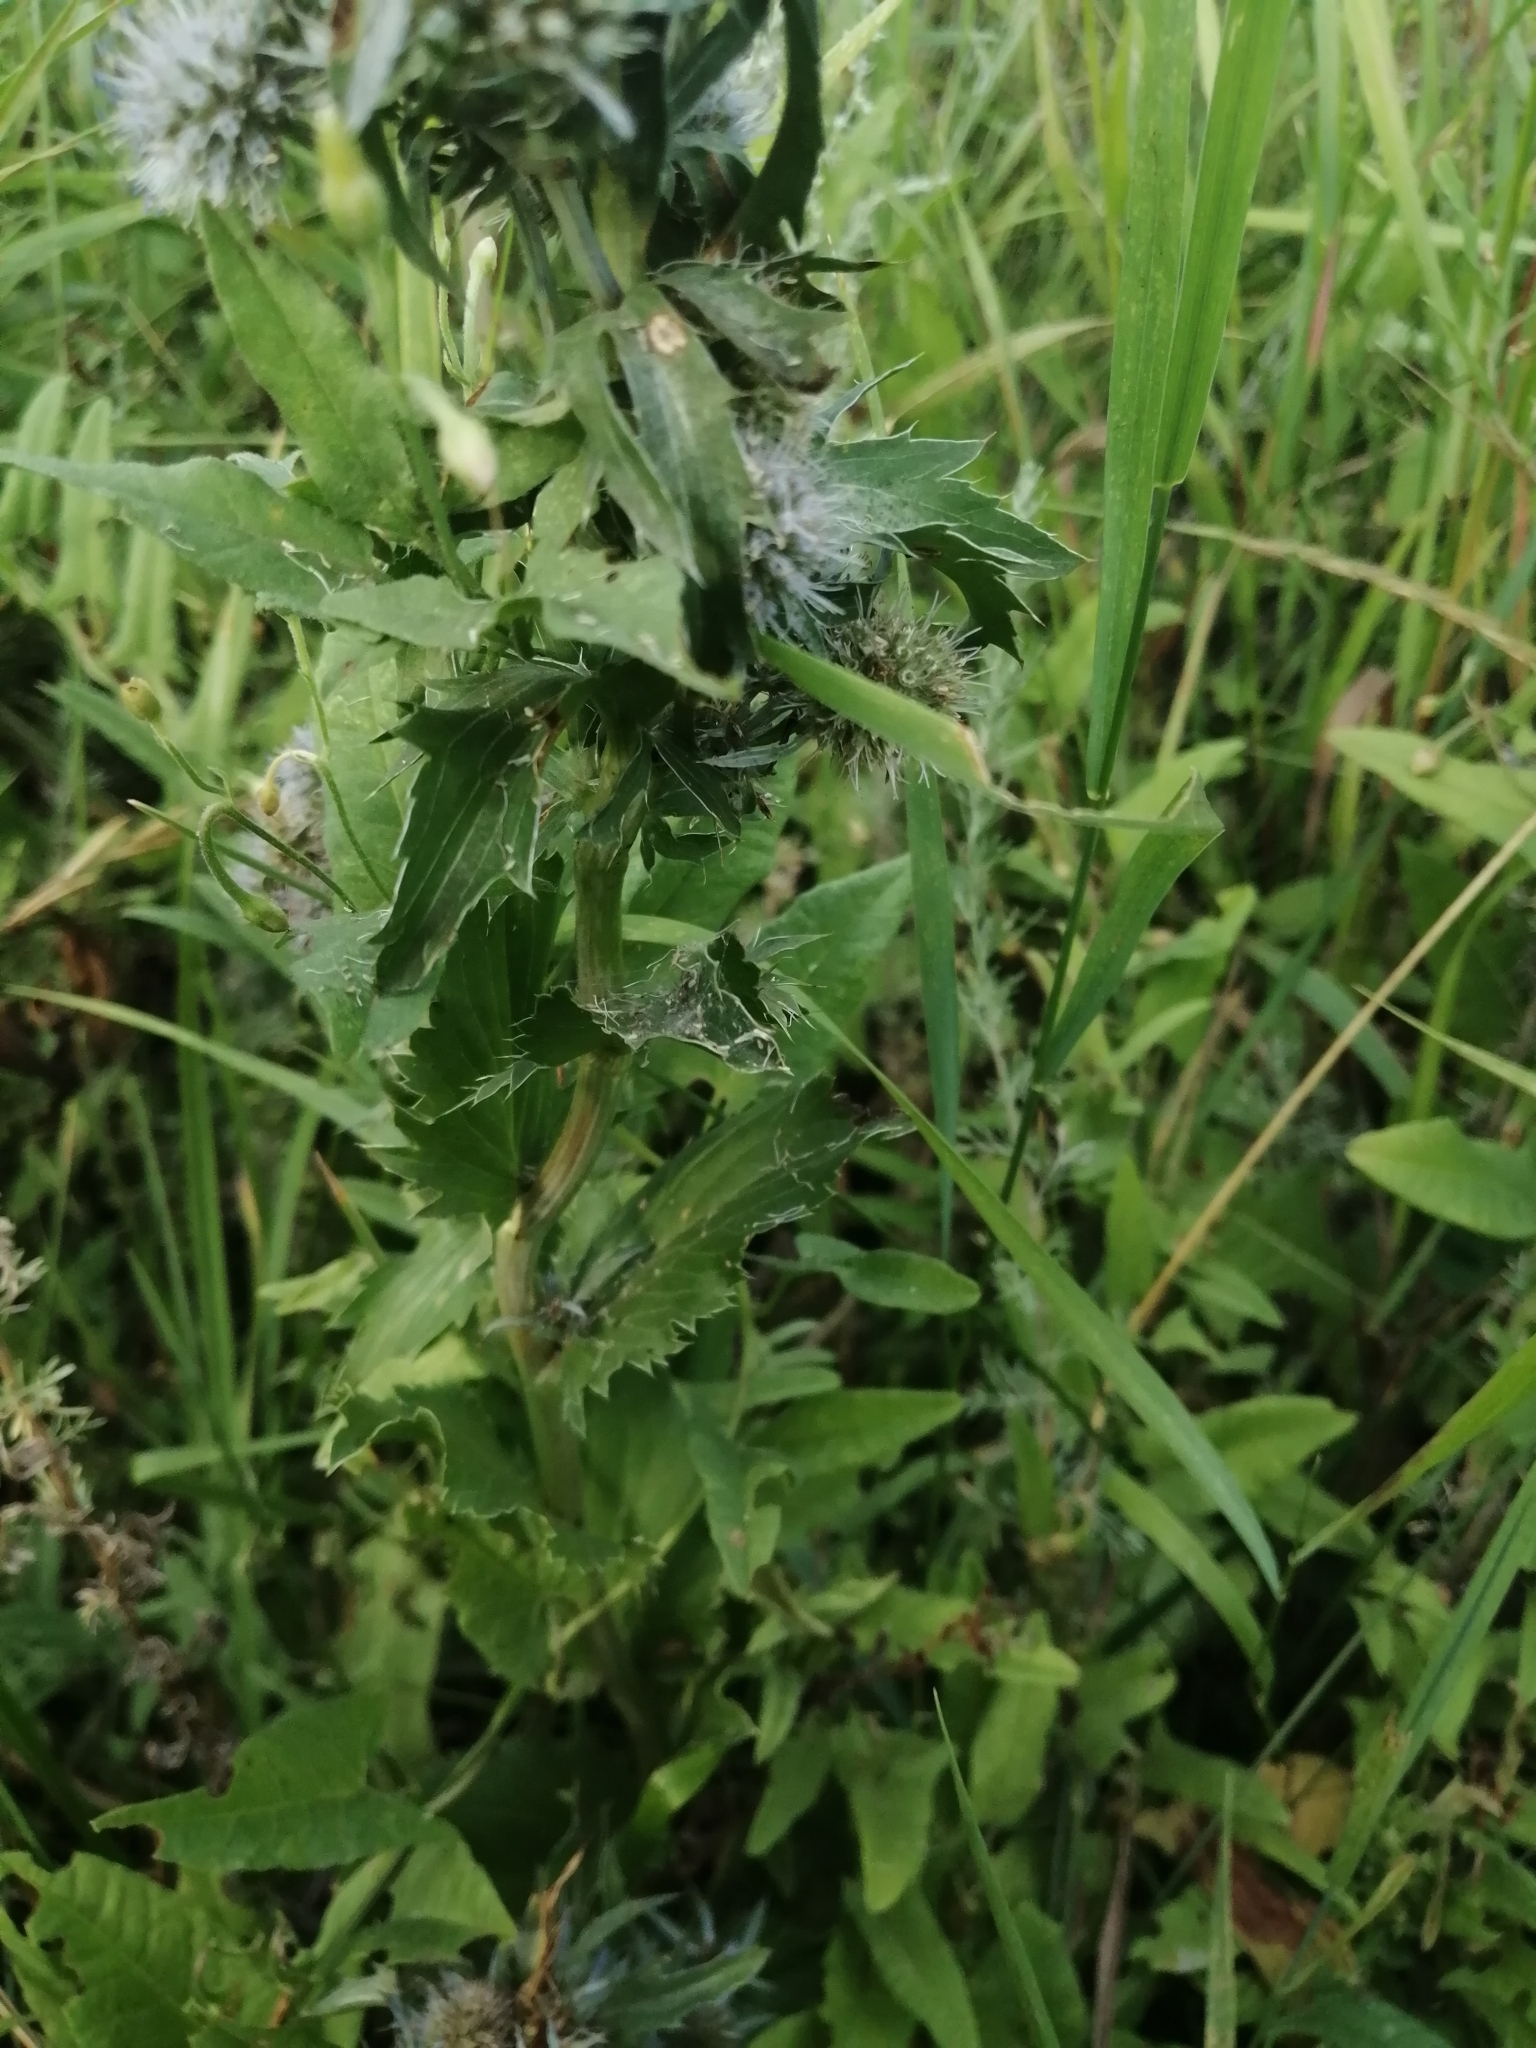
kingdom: Plantae
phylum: Tracheophyta
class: Magnoliopsida
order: Apiales
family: Apiaceae
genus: Eryngium
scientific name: Eryngium planum
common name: Blue eryngo
